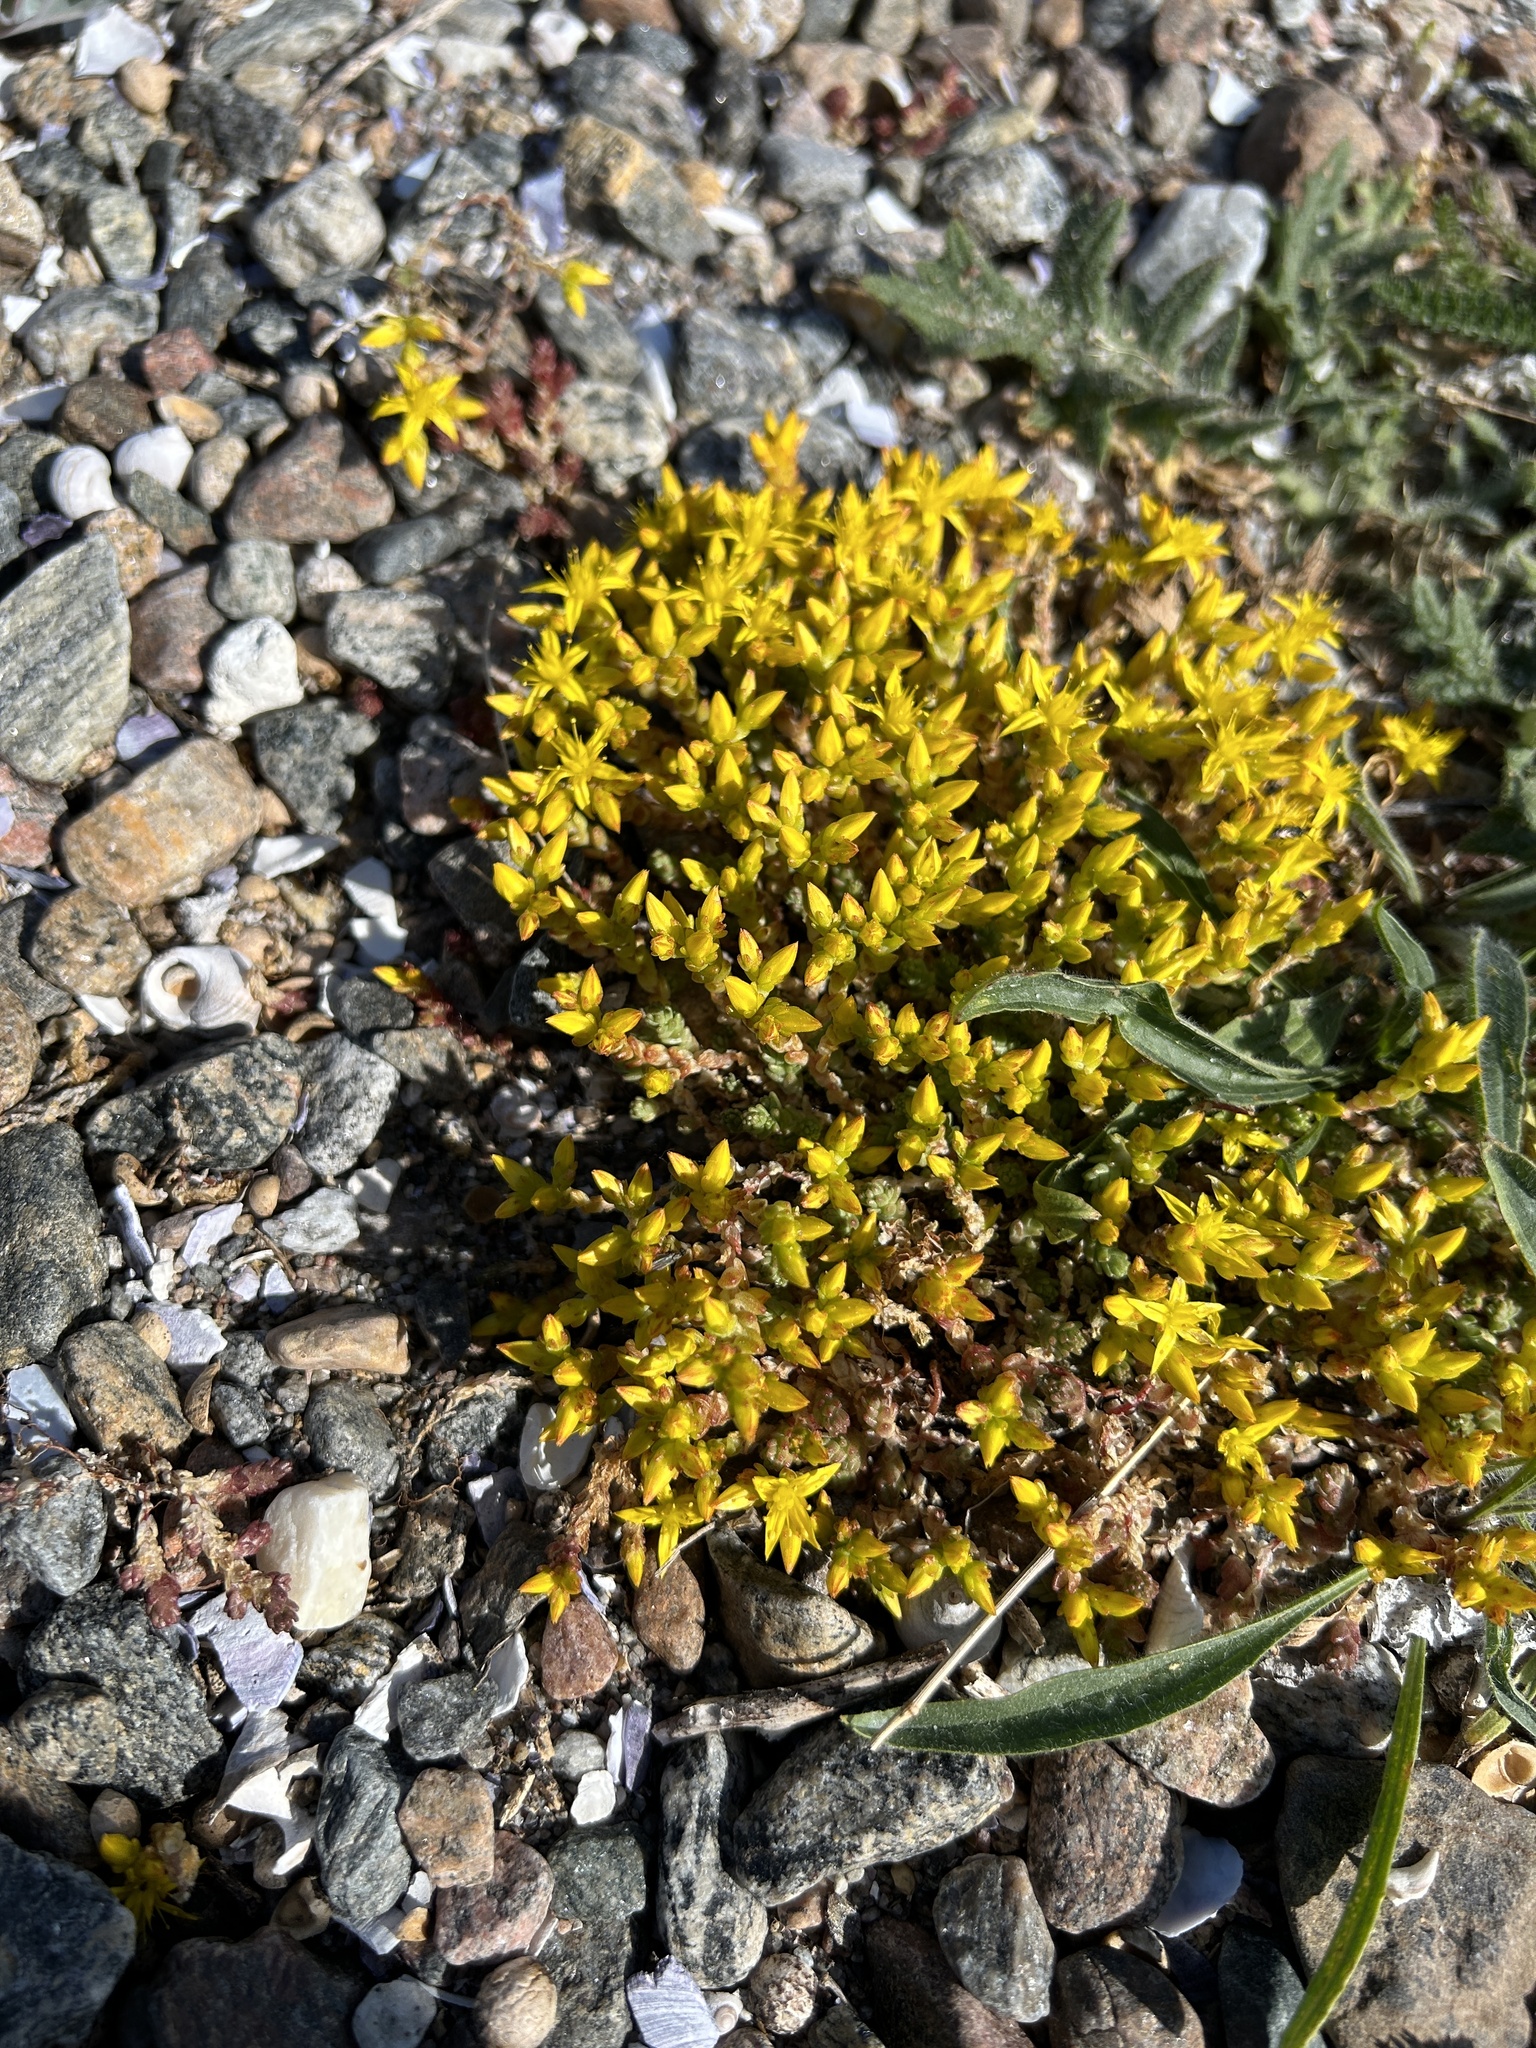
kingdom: Plantae
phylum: Tracheophyta
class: Magnoliopsida
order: Saxifragales
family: Crassulaceae
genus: Sedum
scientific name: Sedum acre
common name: Biting stonecrop
